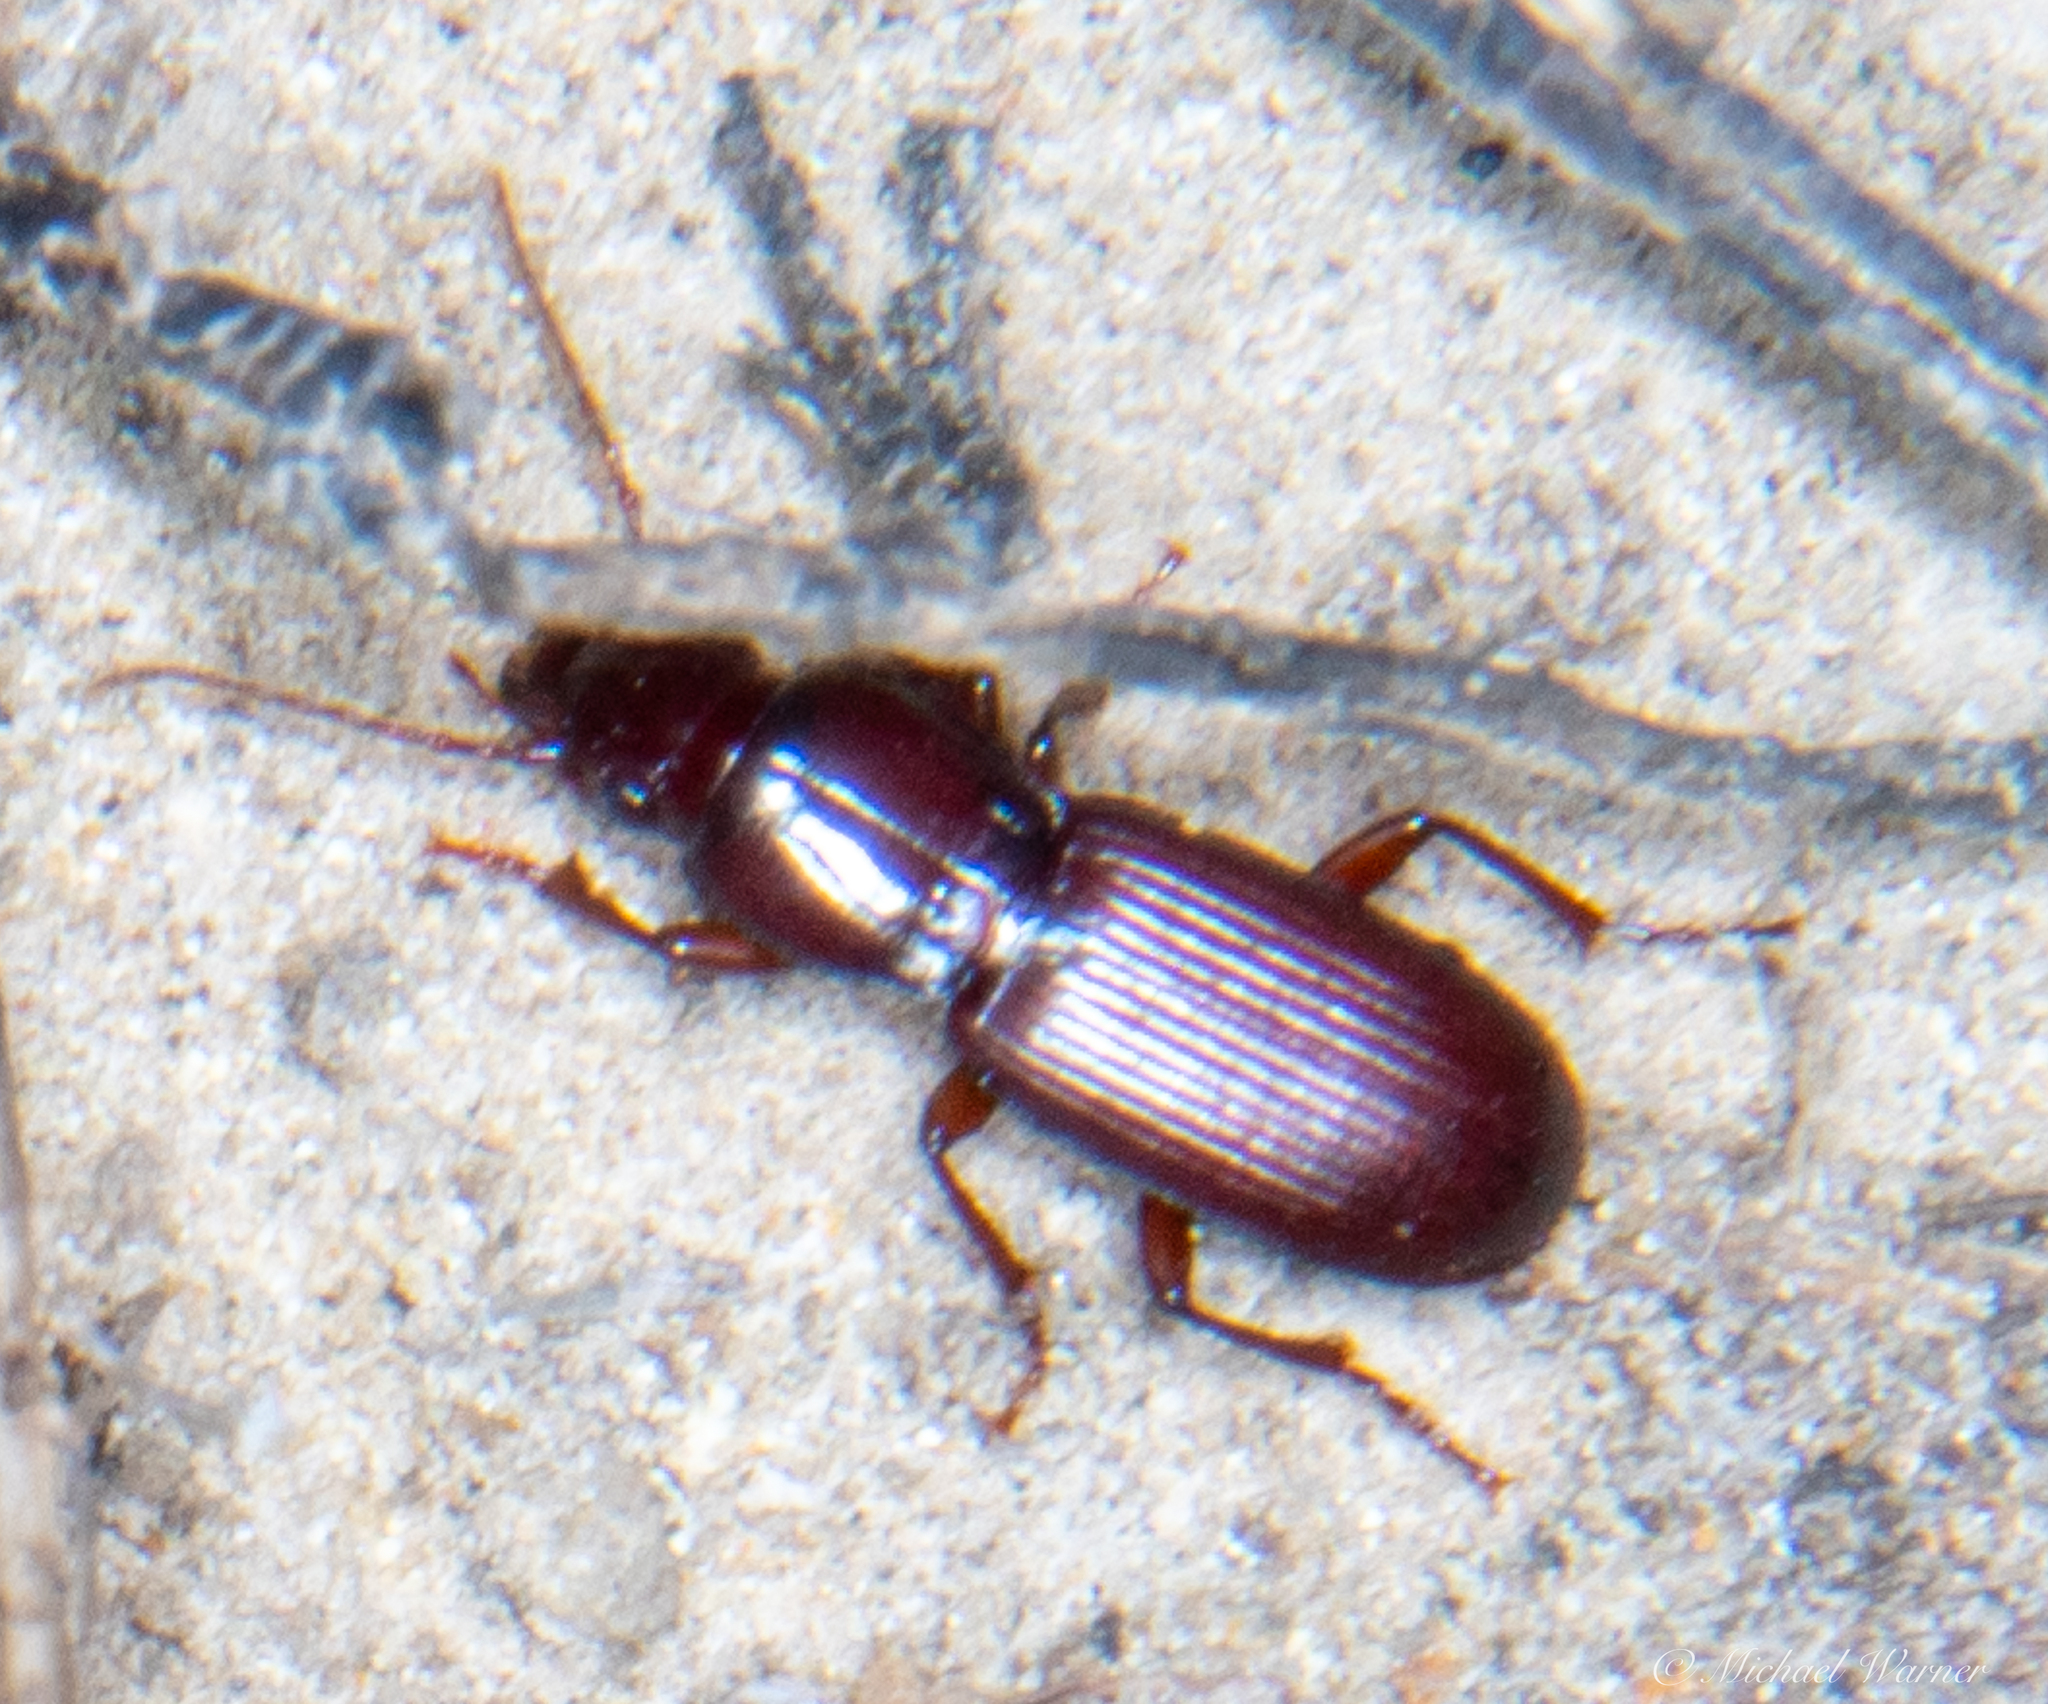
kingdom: Animalia
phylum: Arthropoda
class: Insecta
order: Coleoptera
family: Carabidae
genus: Pterostichus
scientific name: Pterostichus angustus
